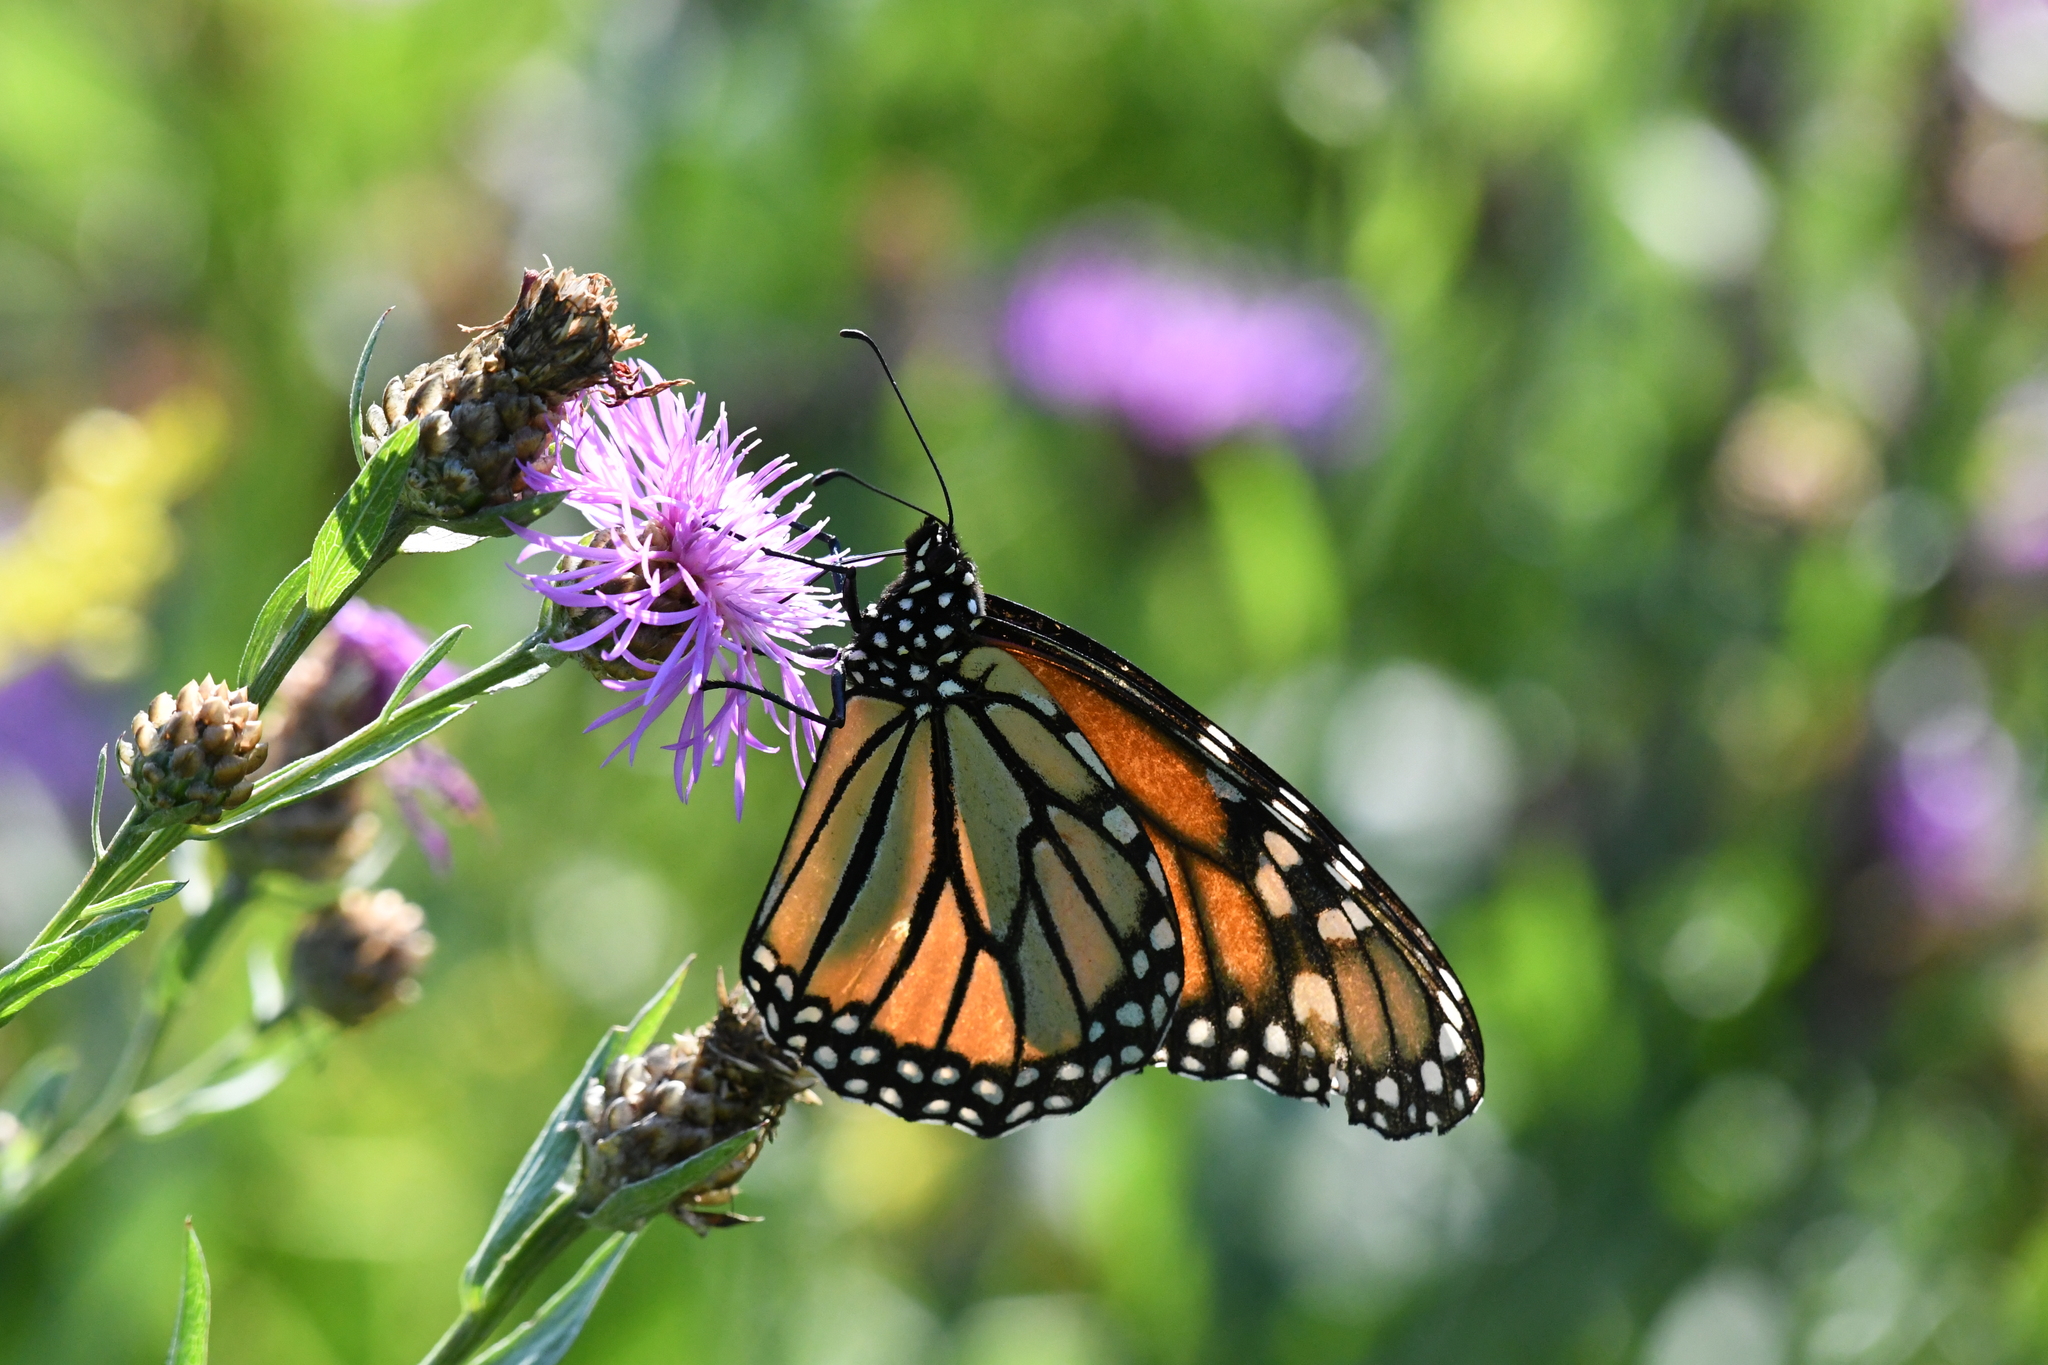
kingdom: Animalia
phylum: Arthropoda
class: Insecta
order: Lepidoptera
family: Nymphalidae
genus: Danaus
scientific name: Danaus plexippus
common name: Monarch
